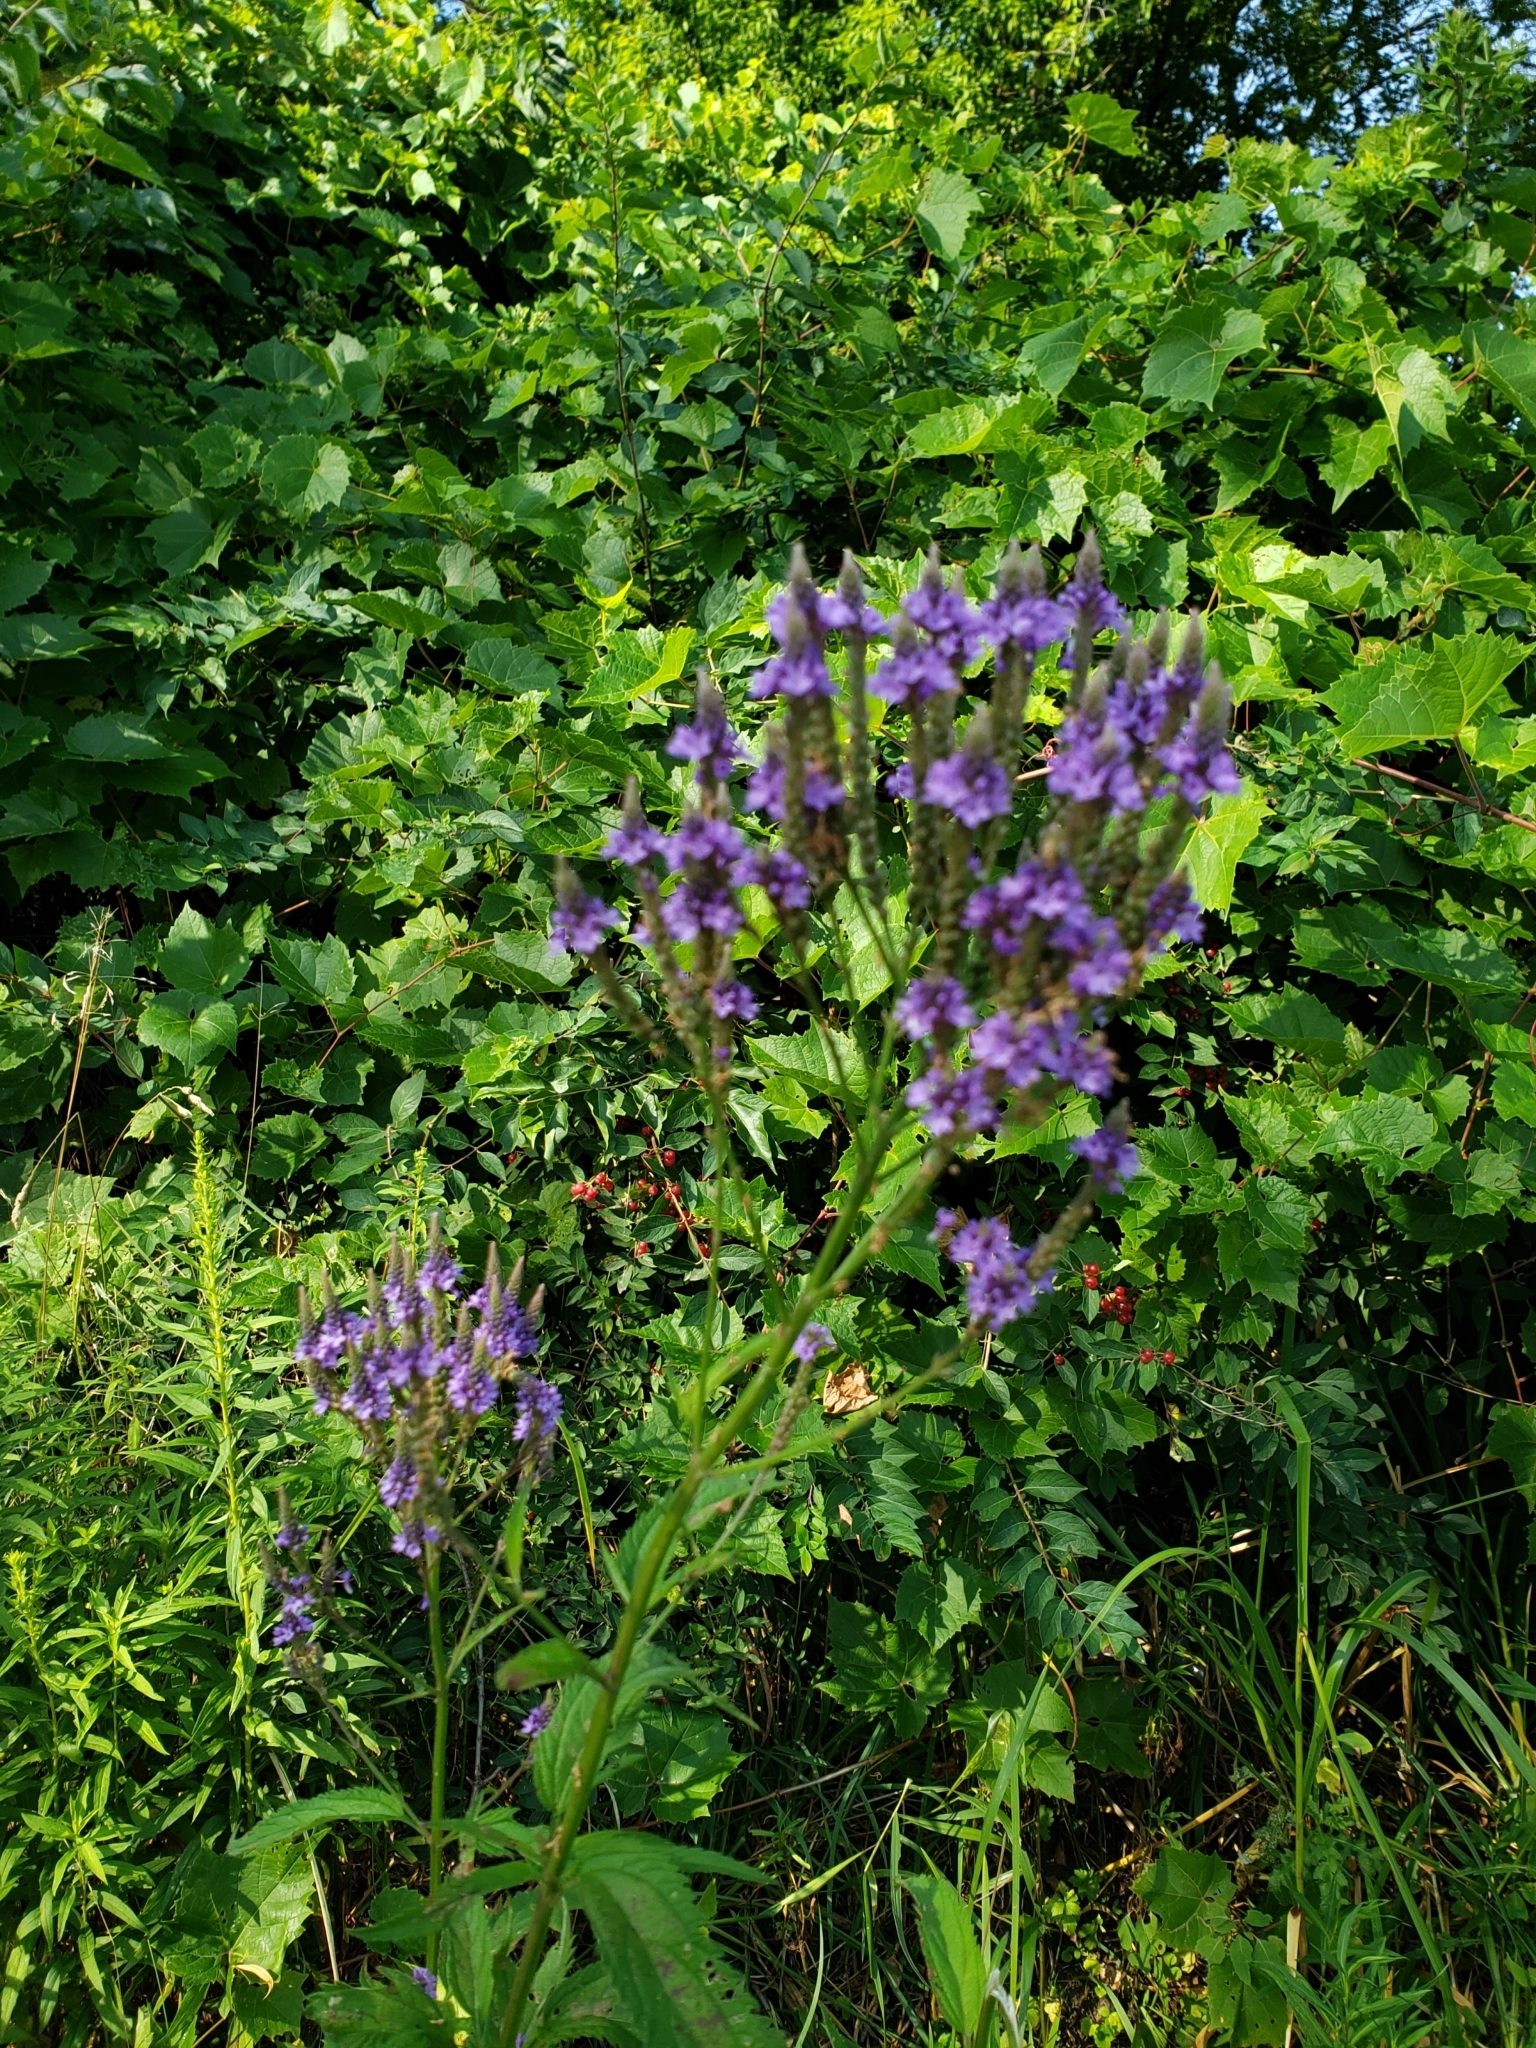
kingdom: Plantae
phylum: Tracheophyta
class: Magnoliopsida
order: Lamiales
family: Verbenaceae
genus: Verbena
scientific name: Verbena hastata
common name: American blue vervain
